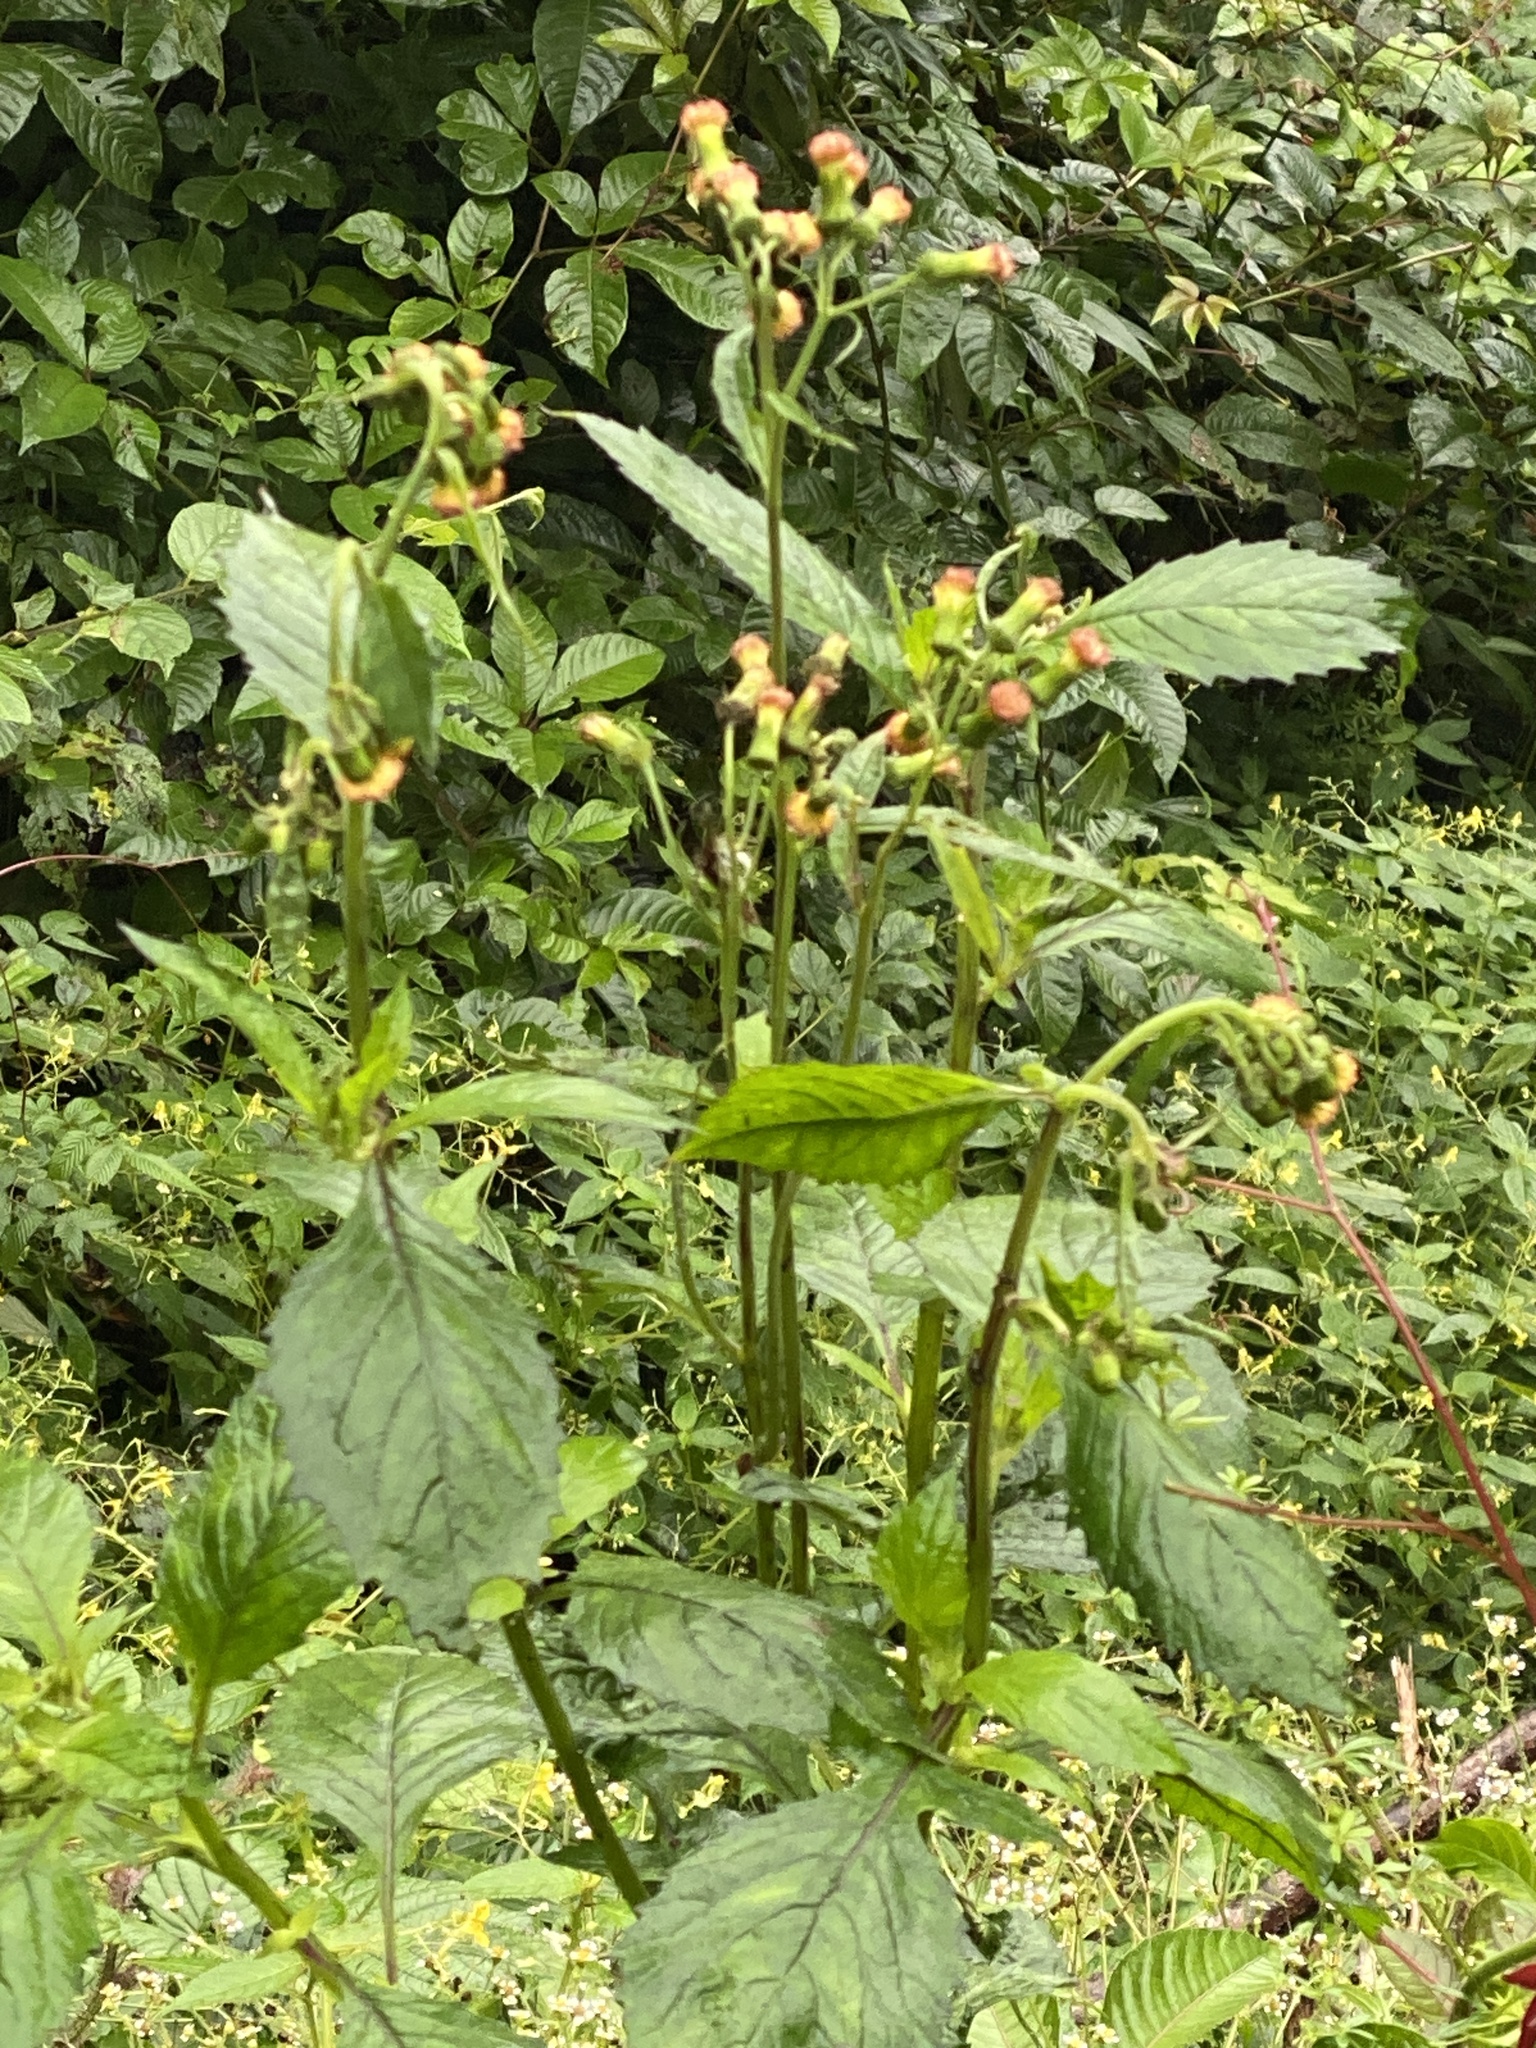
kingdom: Plantae
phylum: Tracheophyta
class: Magnoliopsida
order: Asterales
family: Asteraceae
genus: Crassocephalum
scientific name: Crassocephalum crepidioides
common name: Redflower ragleaf
